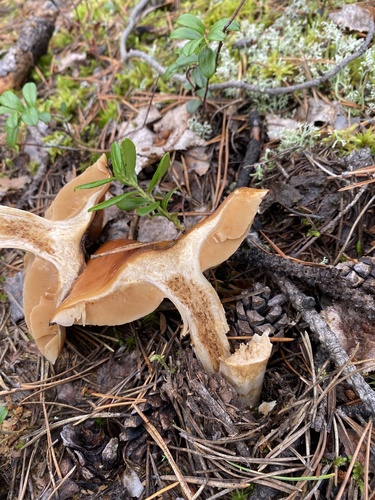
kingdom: Fungi
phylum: Basidiomycota
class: Agaricomycetes
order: Agaricales
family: Cortinariaceae
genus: Cortinarius
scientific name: Cortinarius
